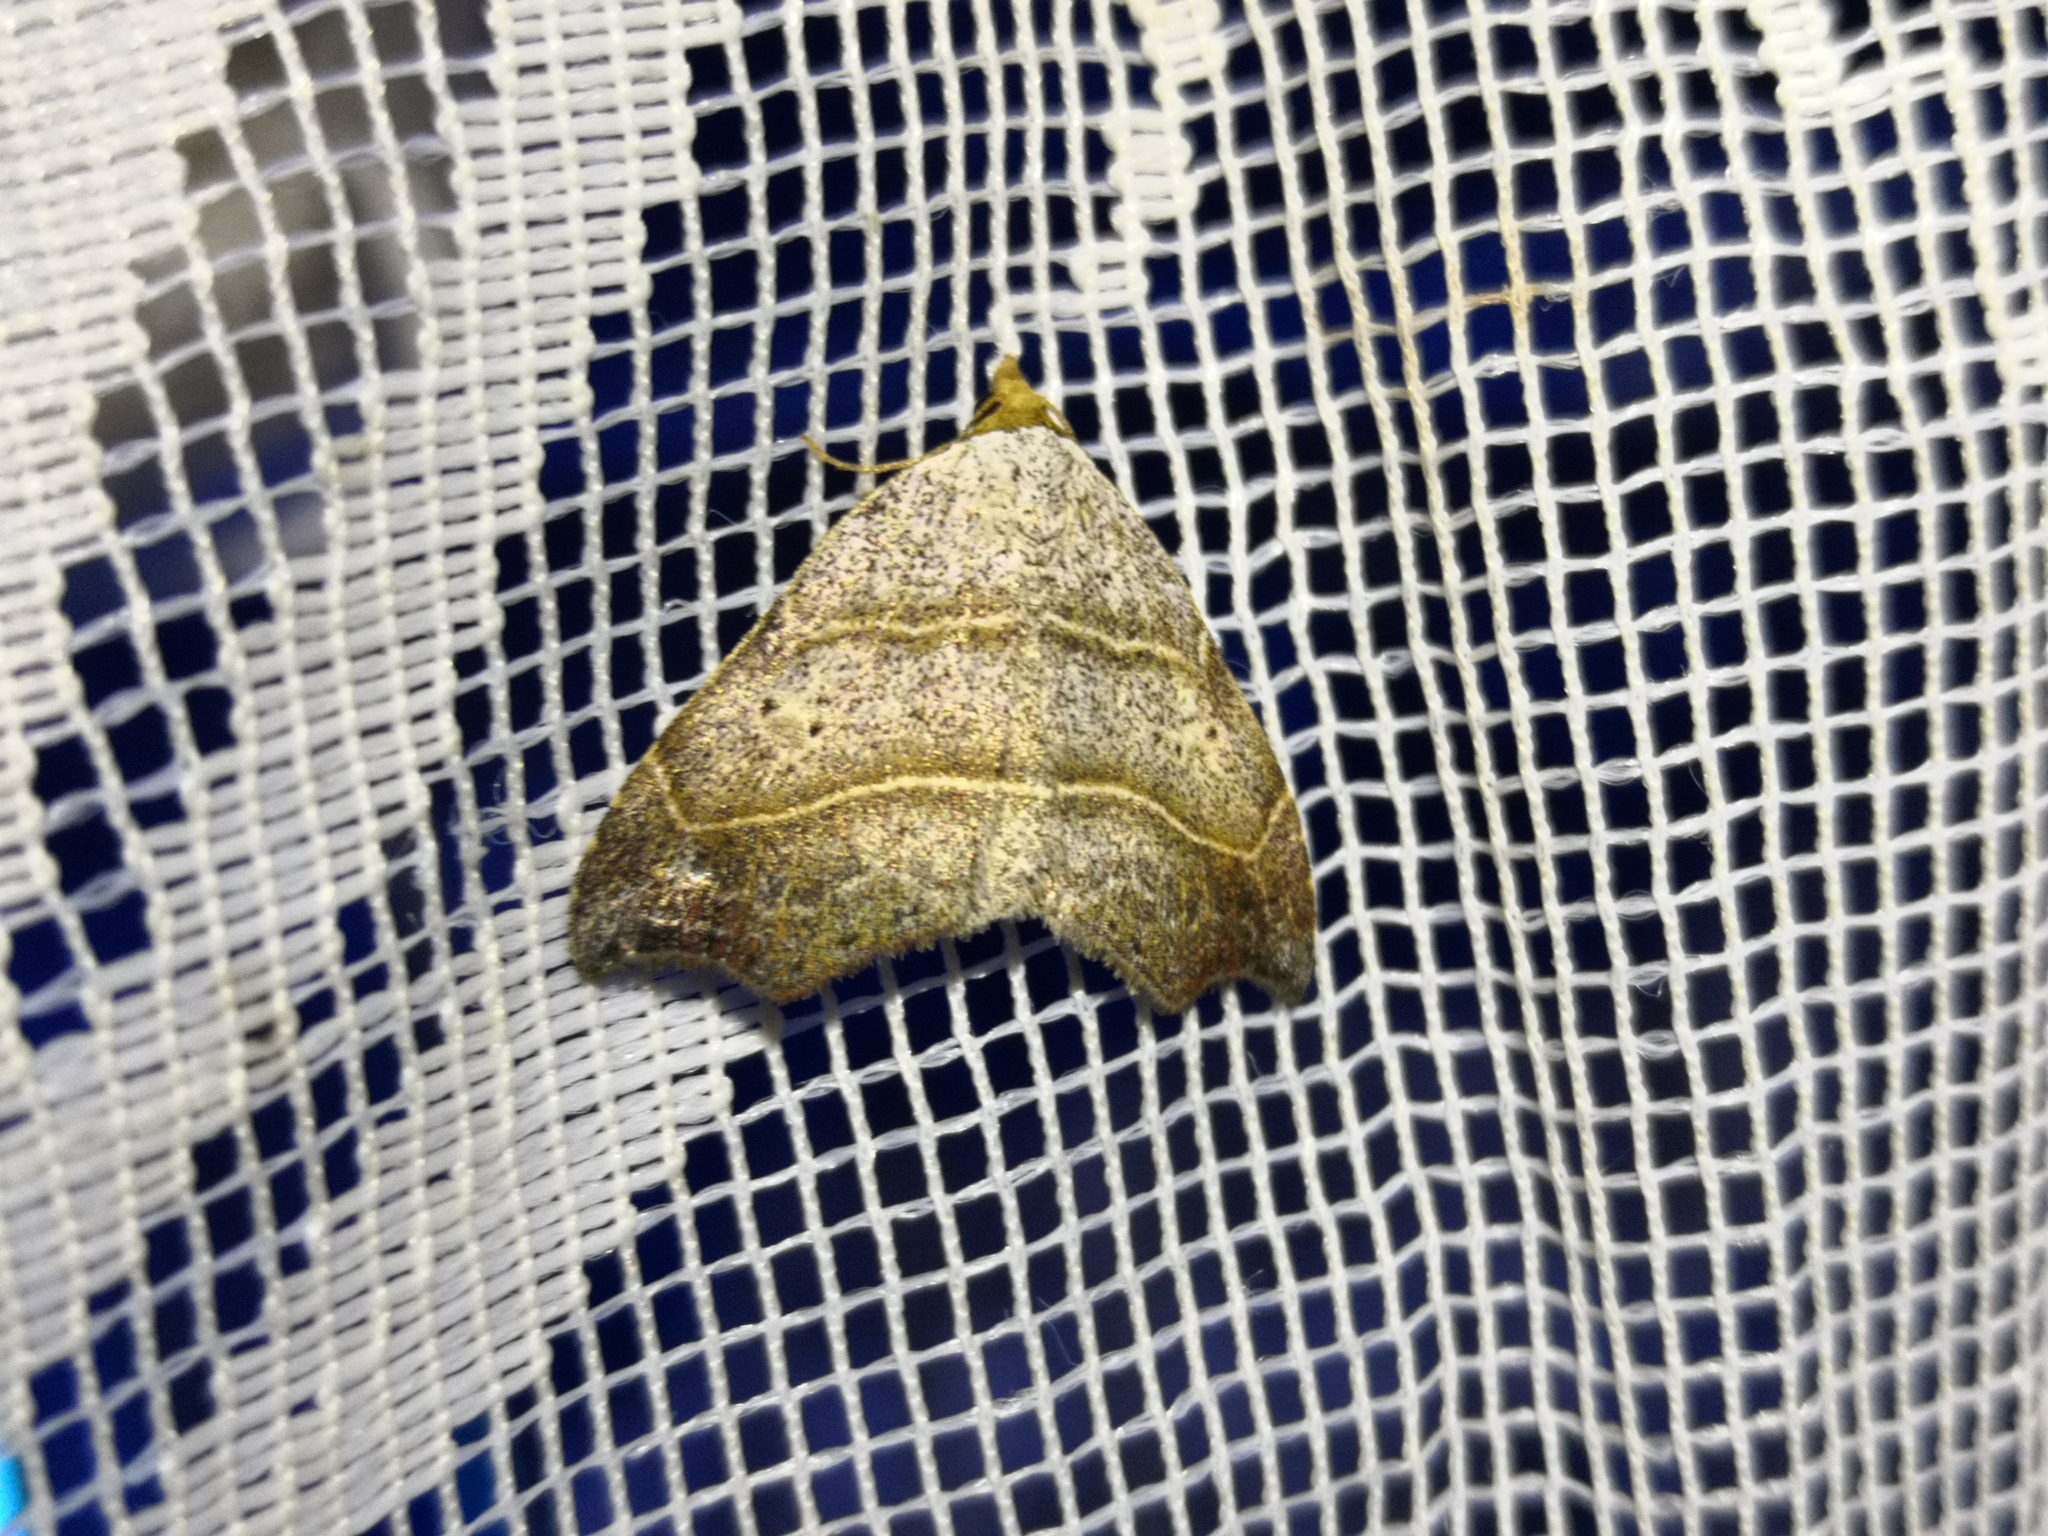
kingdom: Animalia
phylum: Arthropoda
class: Insecta
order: Lepidoptera
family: Erebidae
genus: Laspeyria
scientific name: Laspeyria flexula
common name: Beautiful hook-tip
